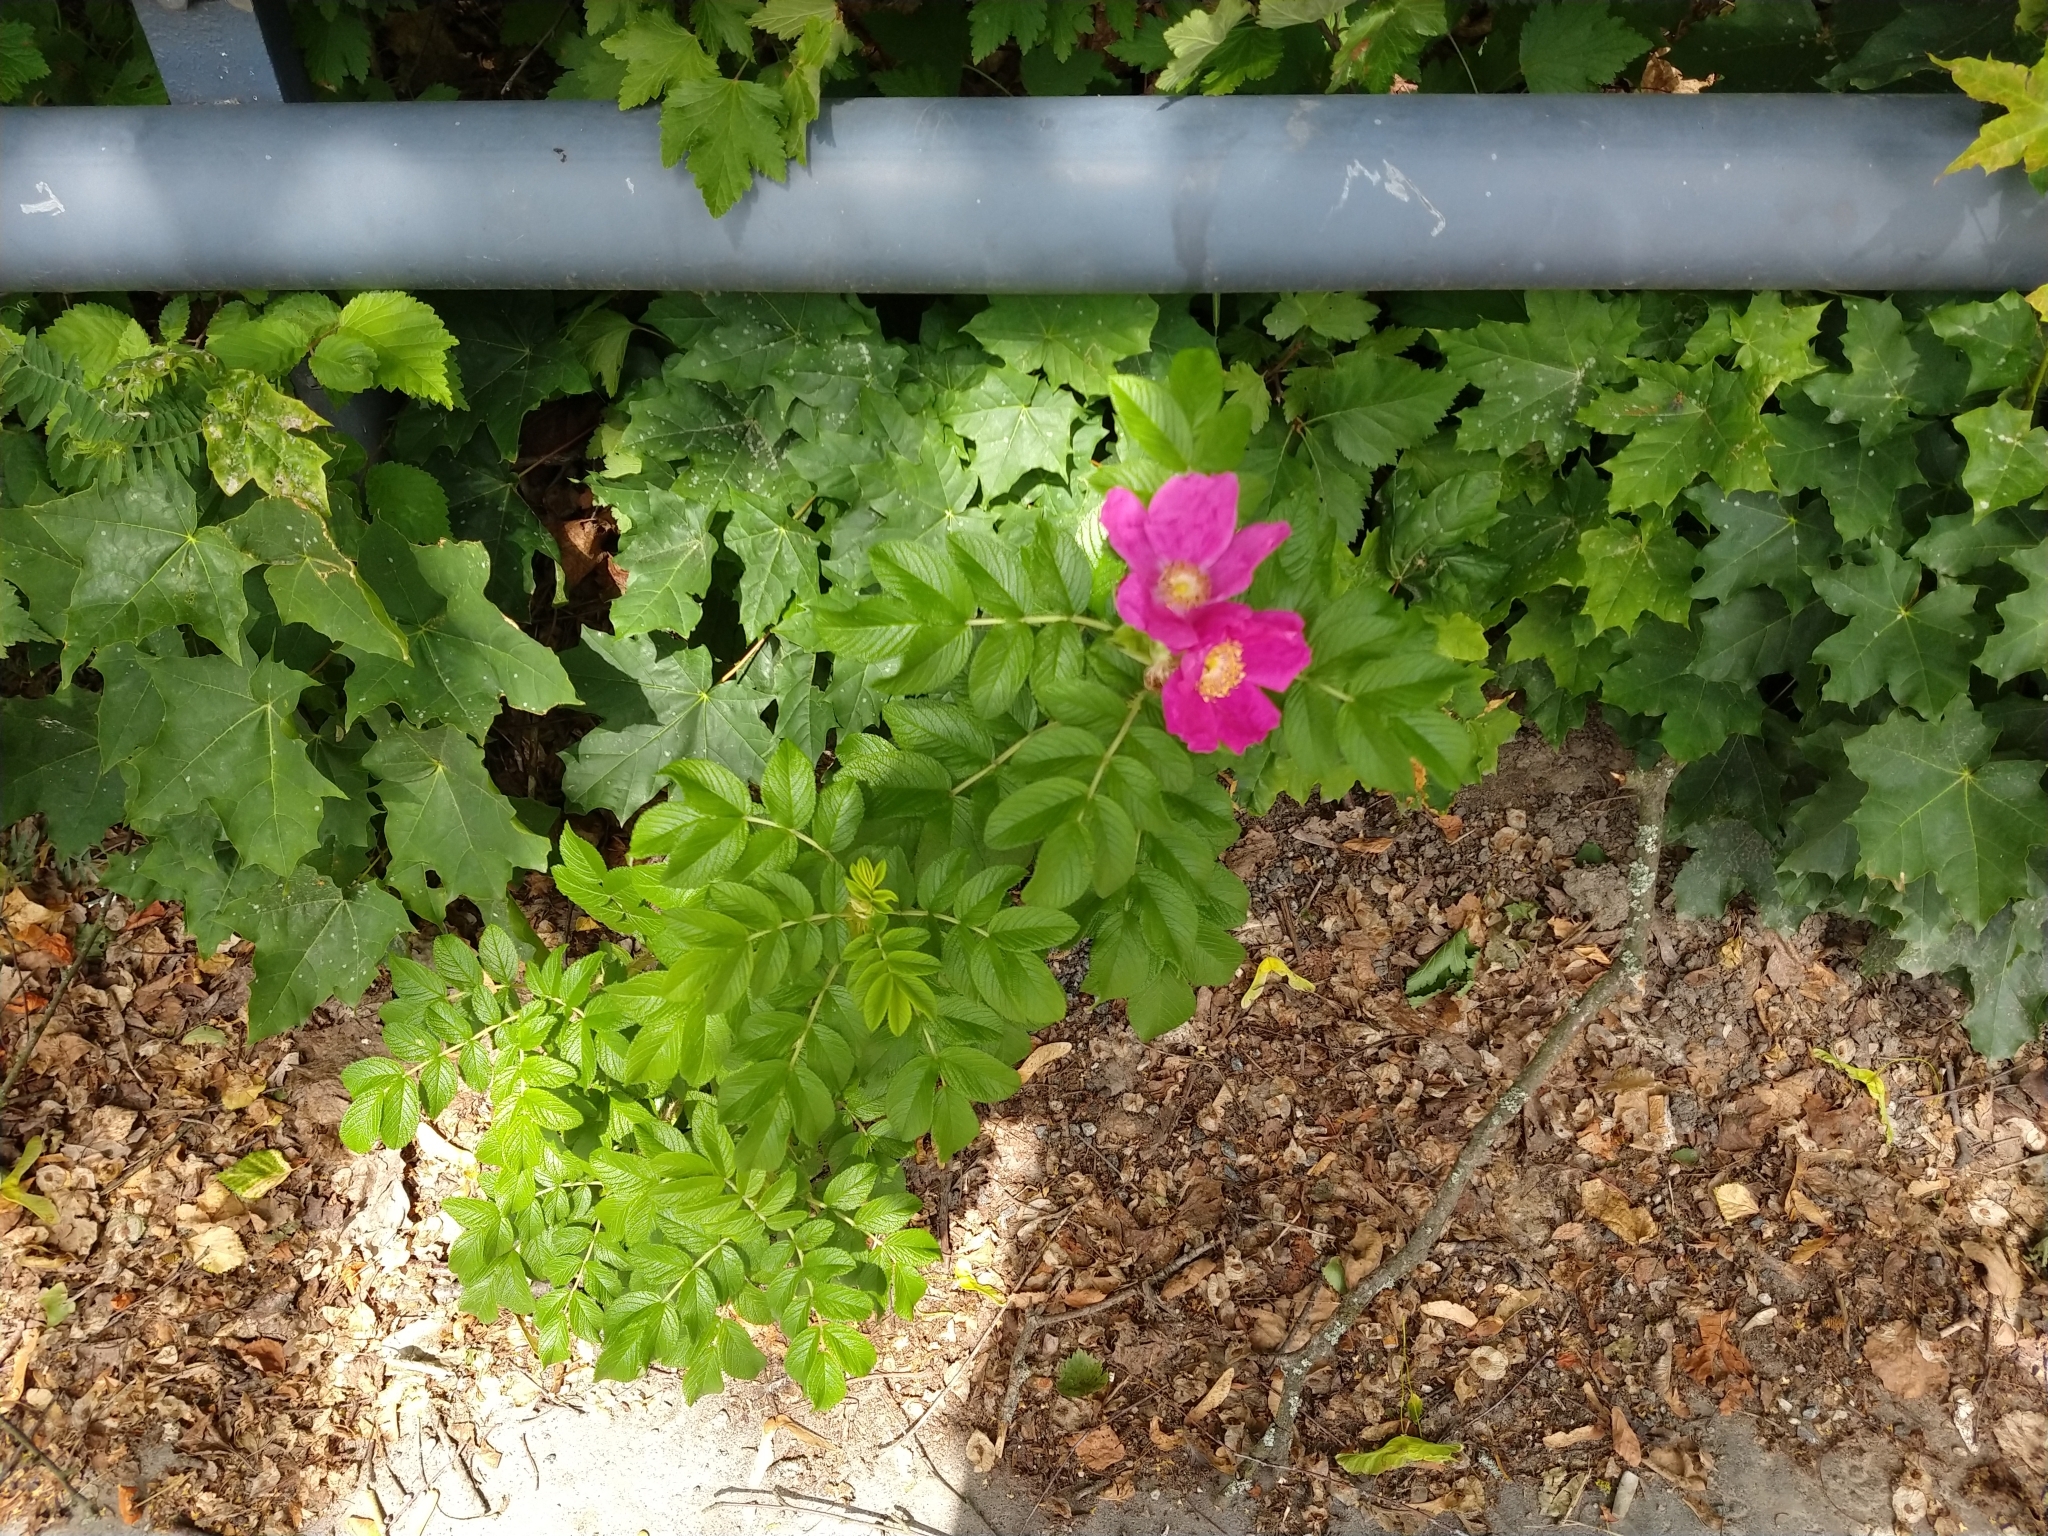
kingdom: Plantae
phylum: Tracheophyta
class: Magnoliopsida
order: Rosales
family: Rosaceae
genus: Rosa
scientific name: Rosa rugosa
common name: Japanese rose
